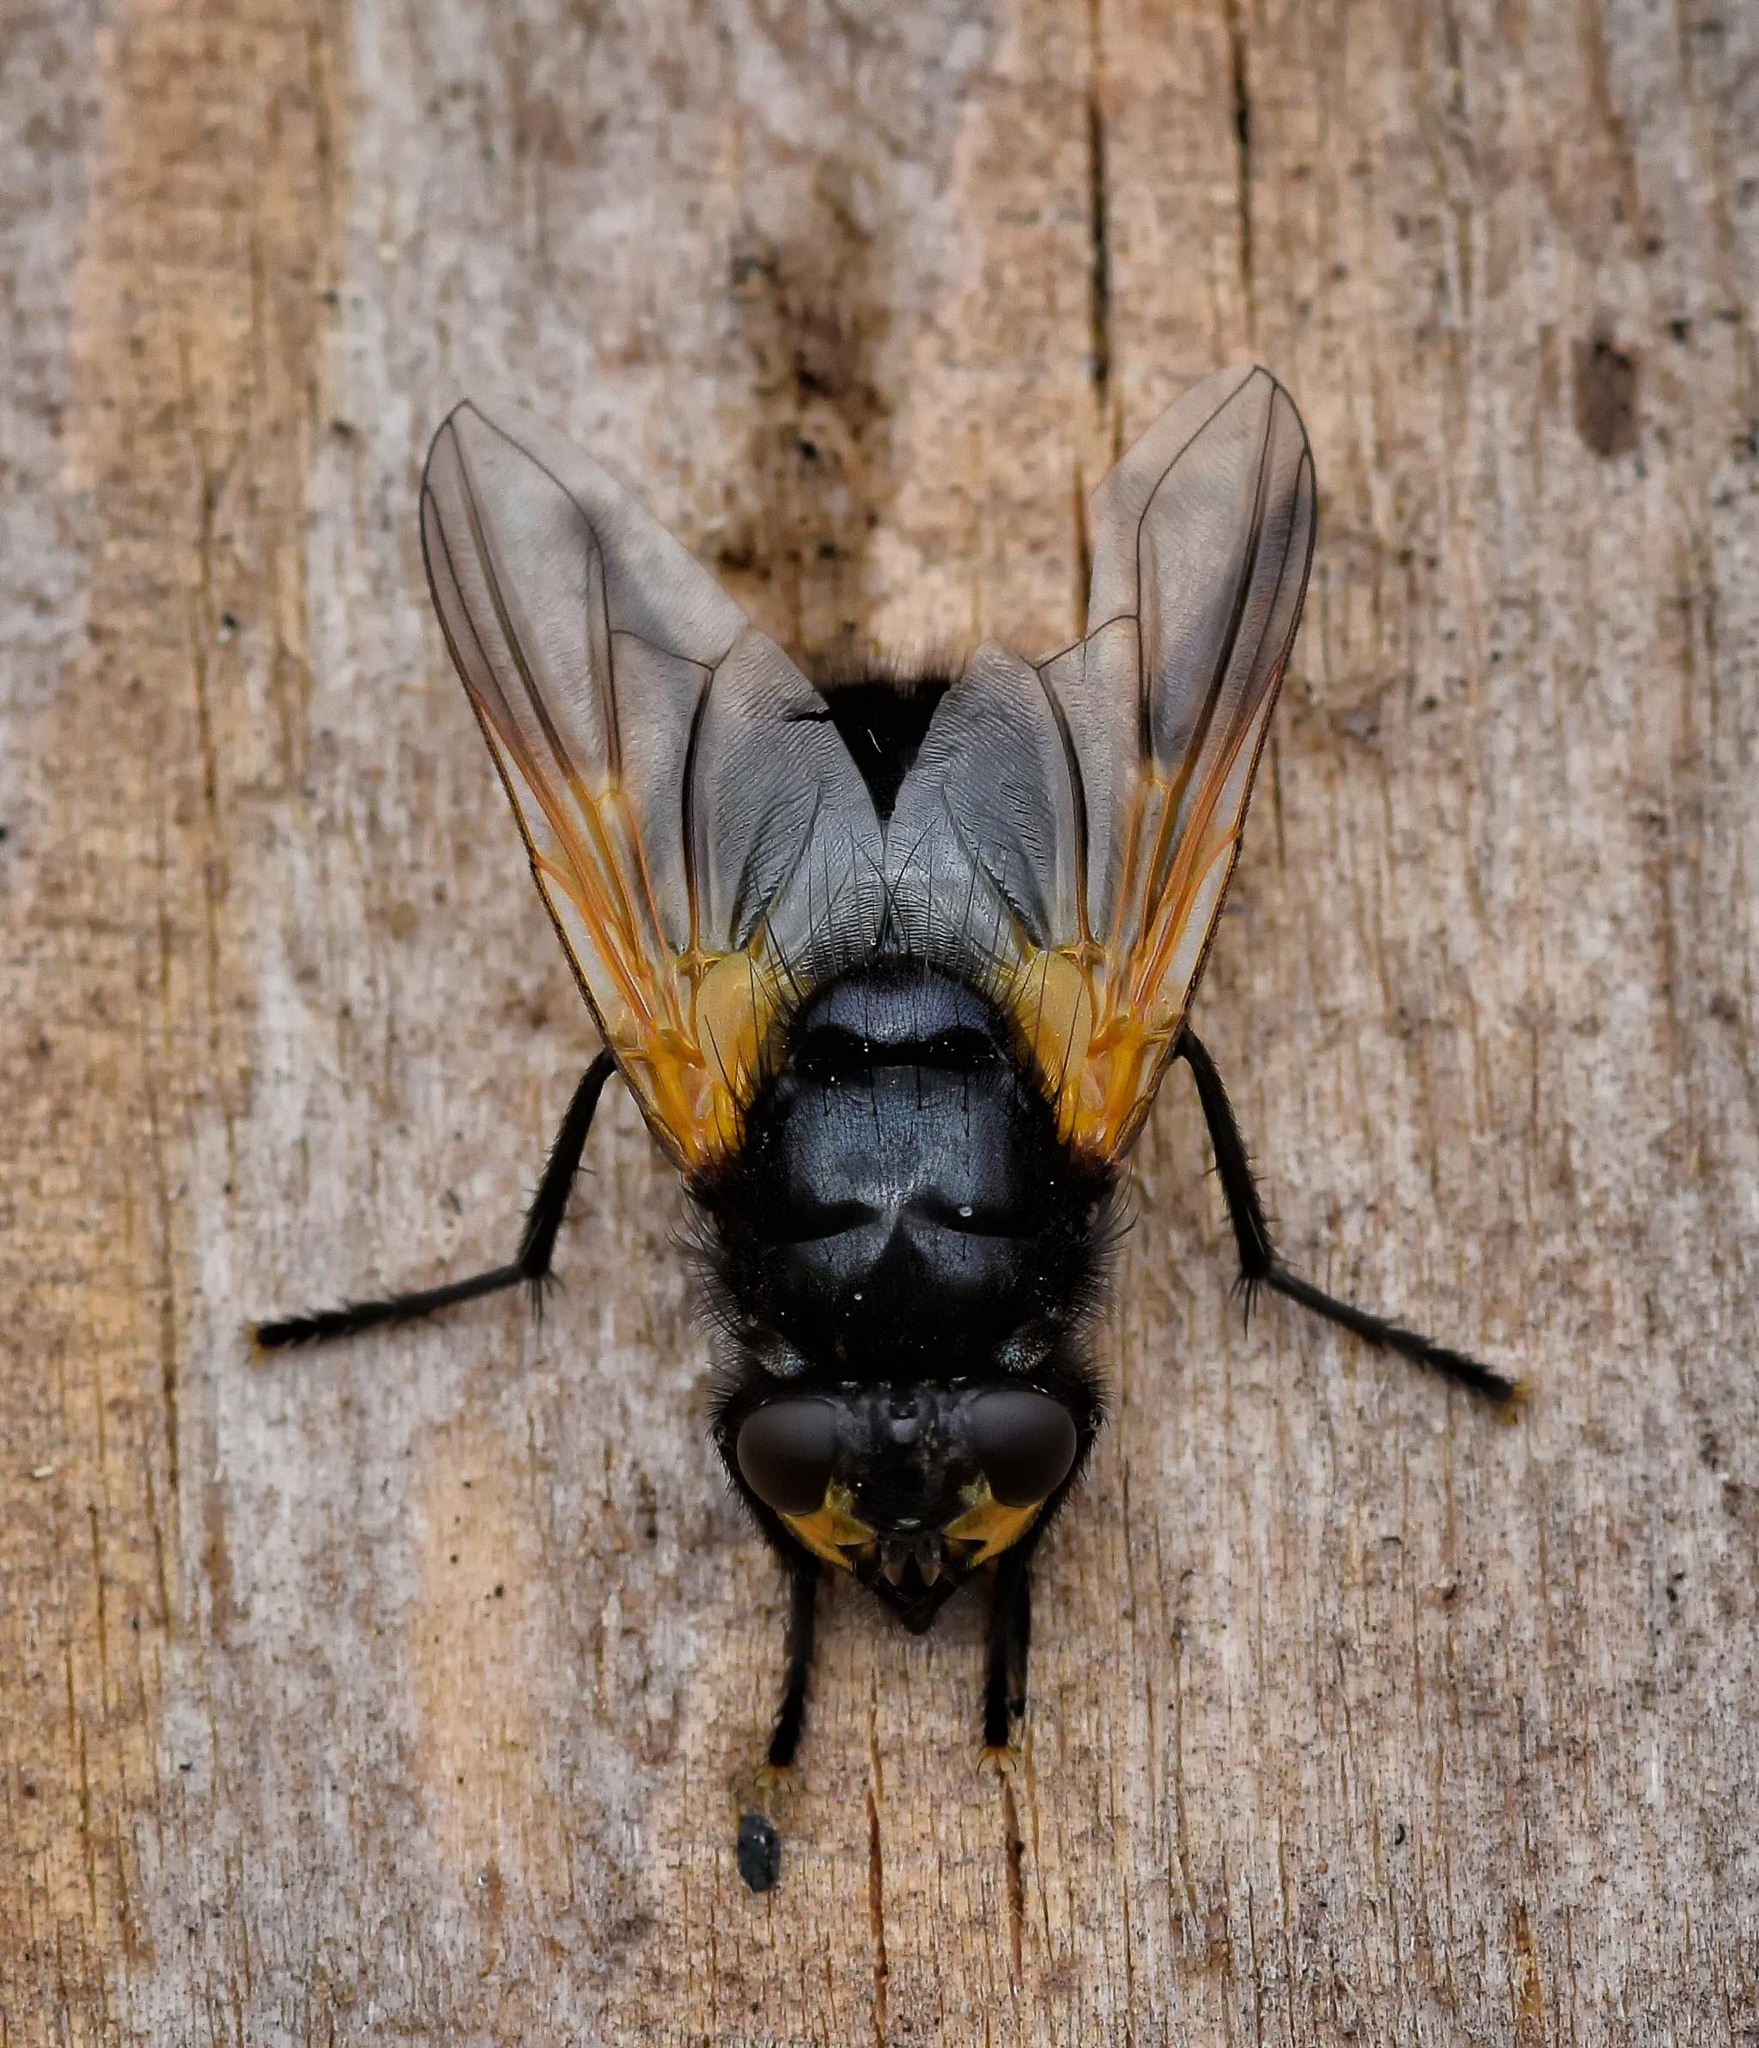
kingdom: Animalia
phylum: Arthropoda
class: Insecta
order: Diptera
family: Muscidae
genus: Mesembrina
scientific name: Mesembrina meridiana
